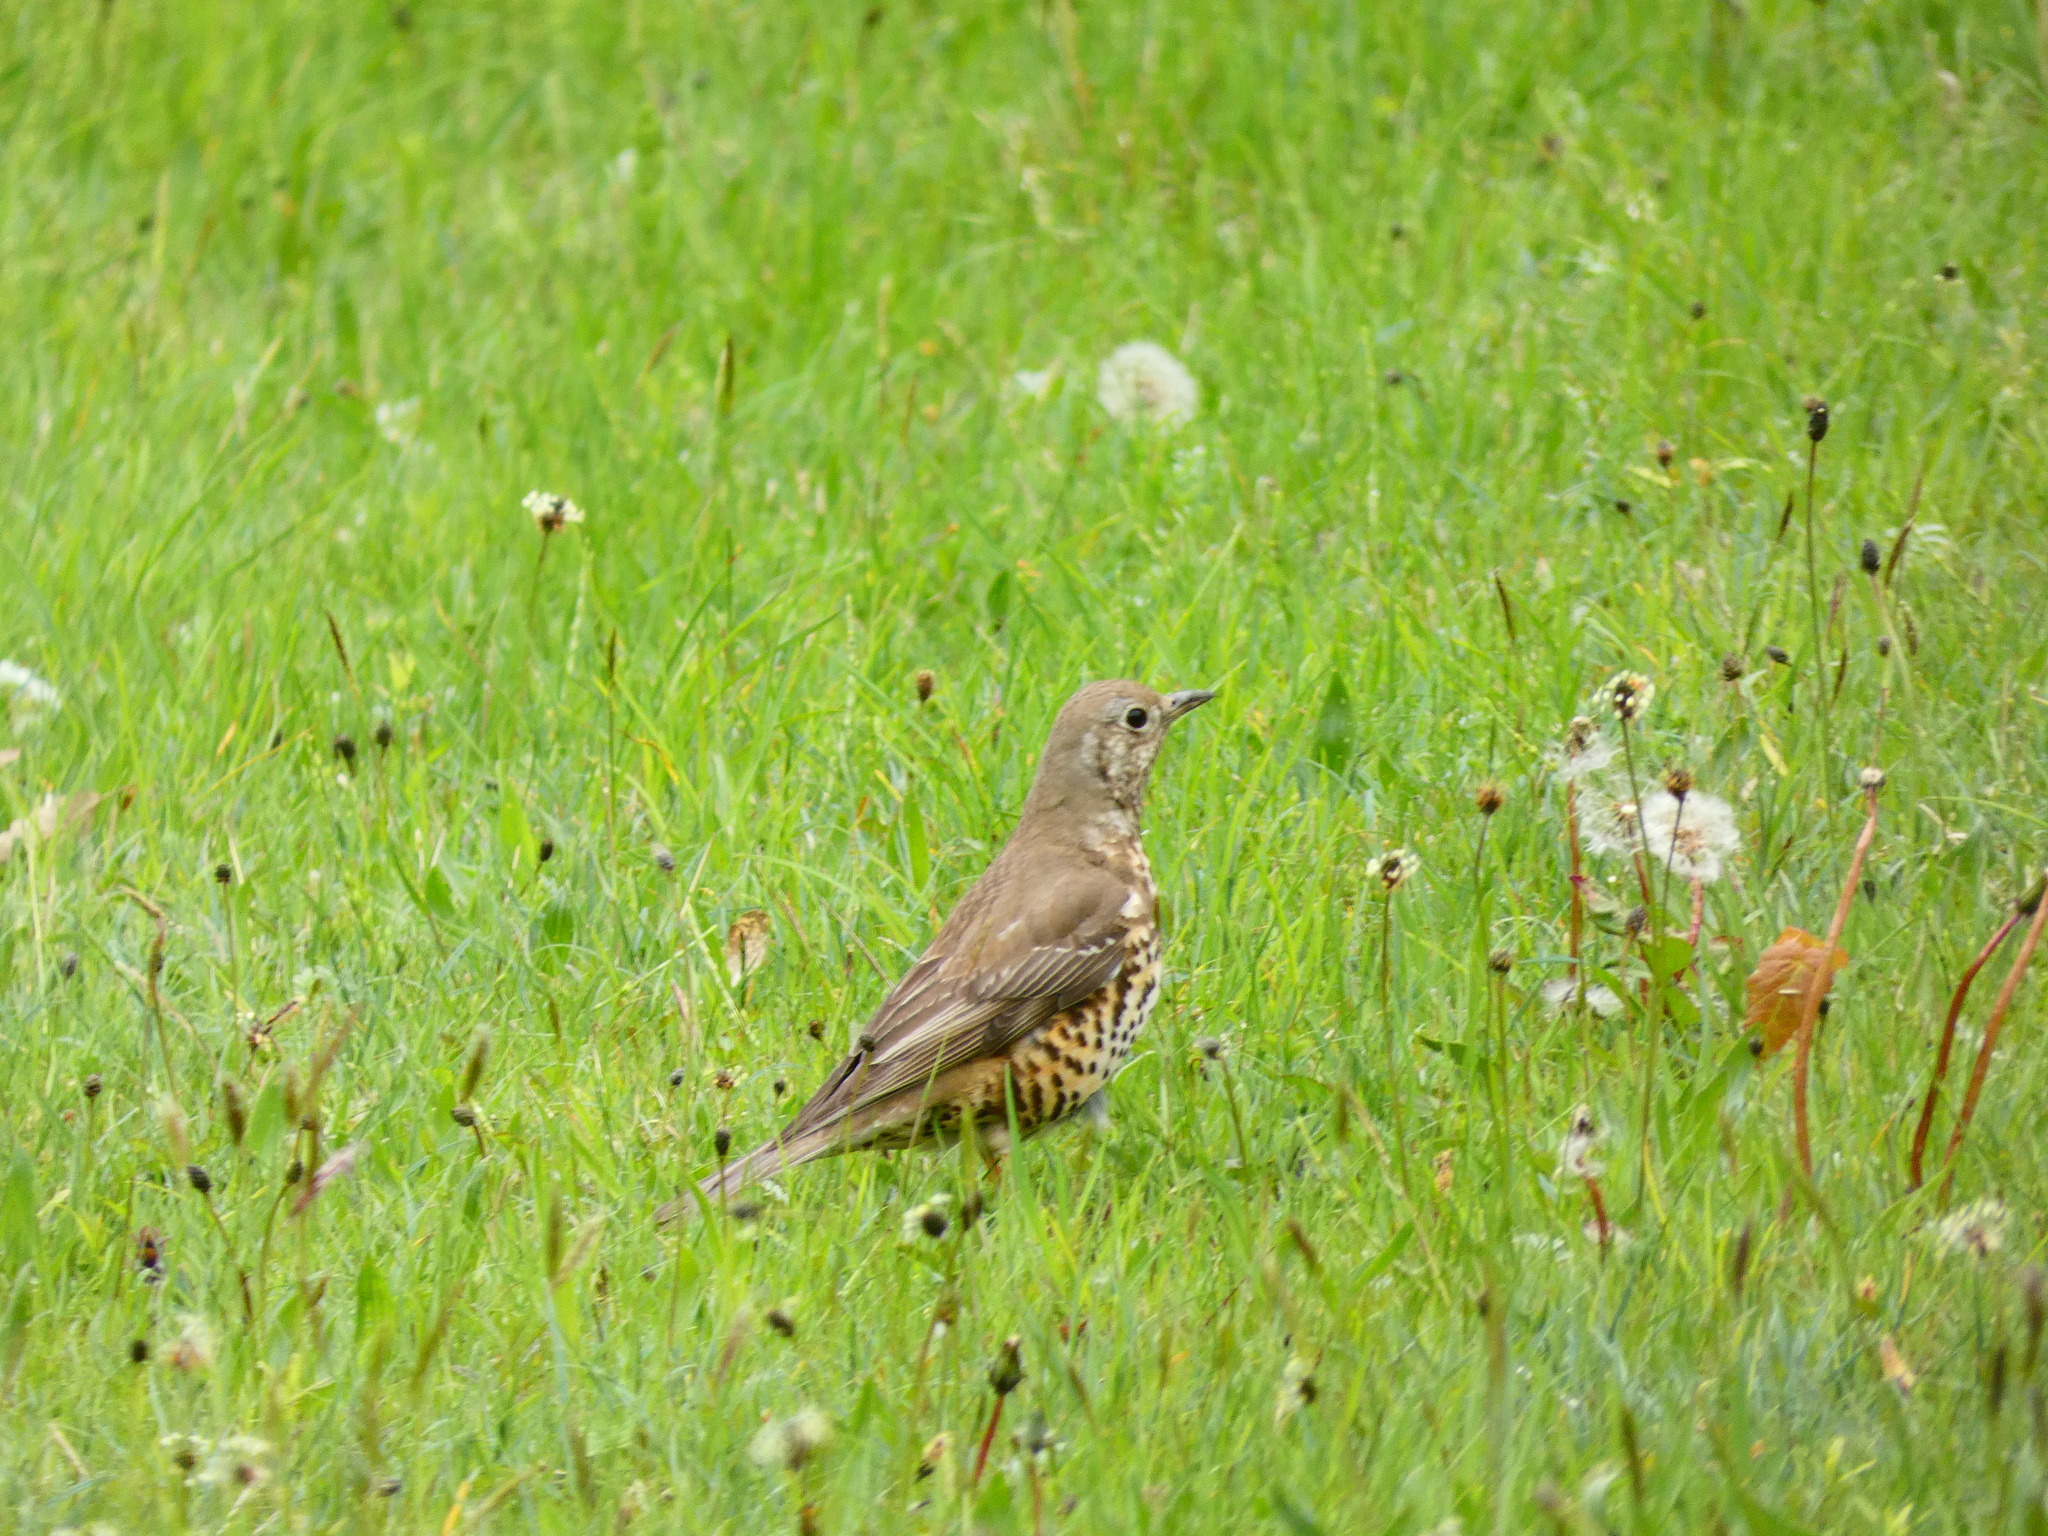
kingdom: Animalia
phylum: Chordata
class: Aves
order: Passeriformes
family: Turdidae
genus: Turdus
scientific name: Turdus viscivorus
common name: Mistle thrush
